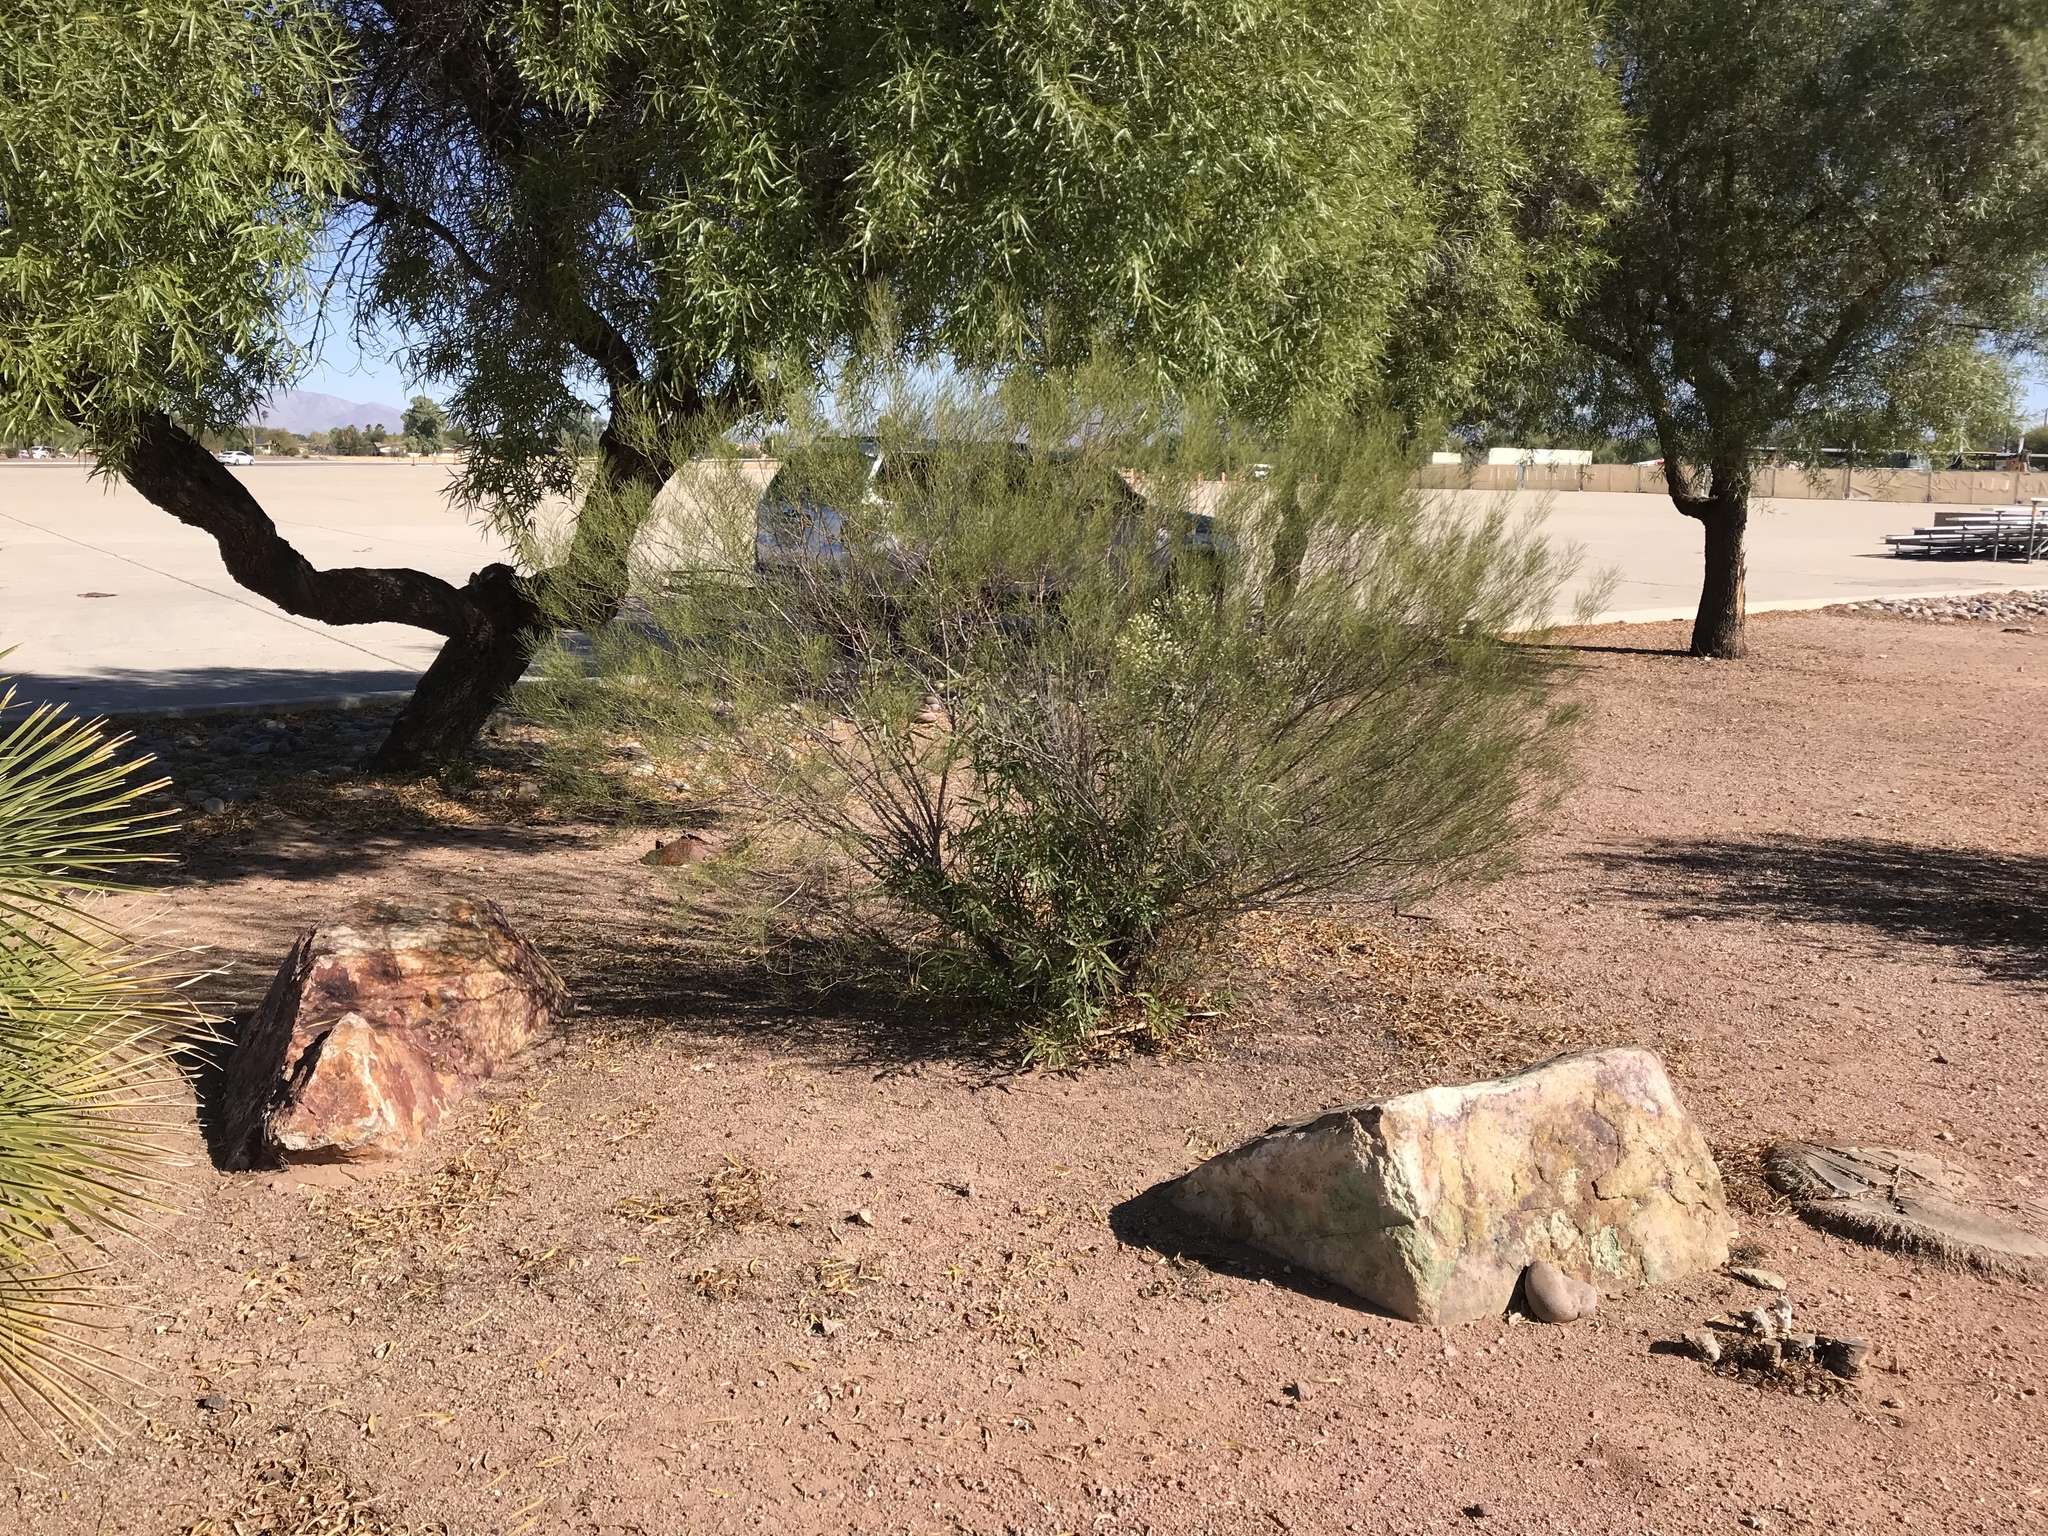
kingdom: Plantae
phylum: Tracheophyta
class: Magnoliopsida
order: Asterales
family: Asteraceae
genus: Baccharis
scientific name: Baccharis sarothroides
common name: Desert-broom
